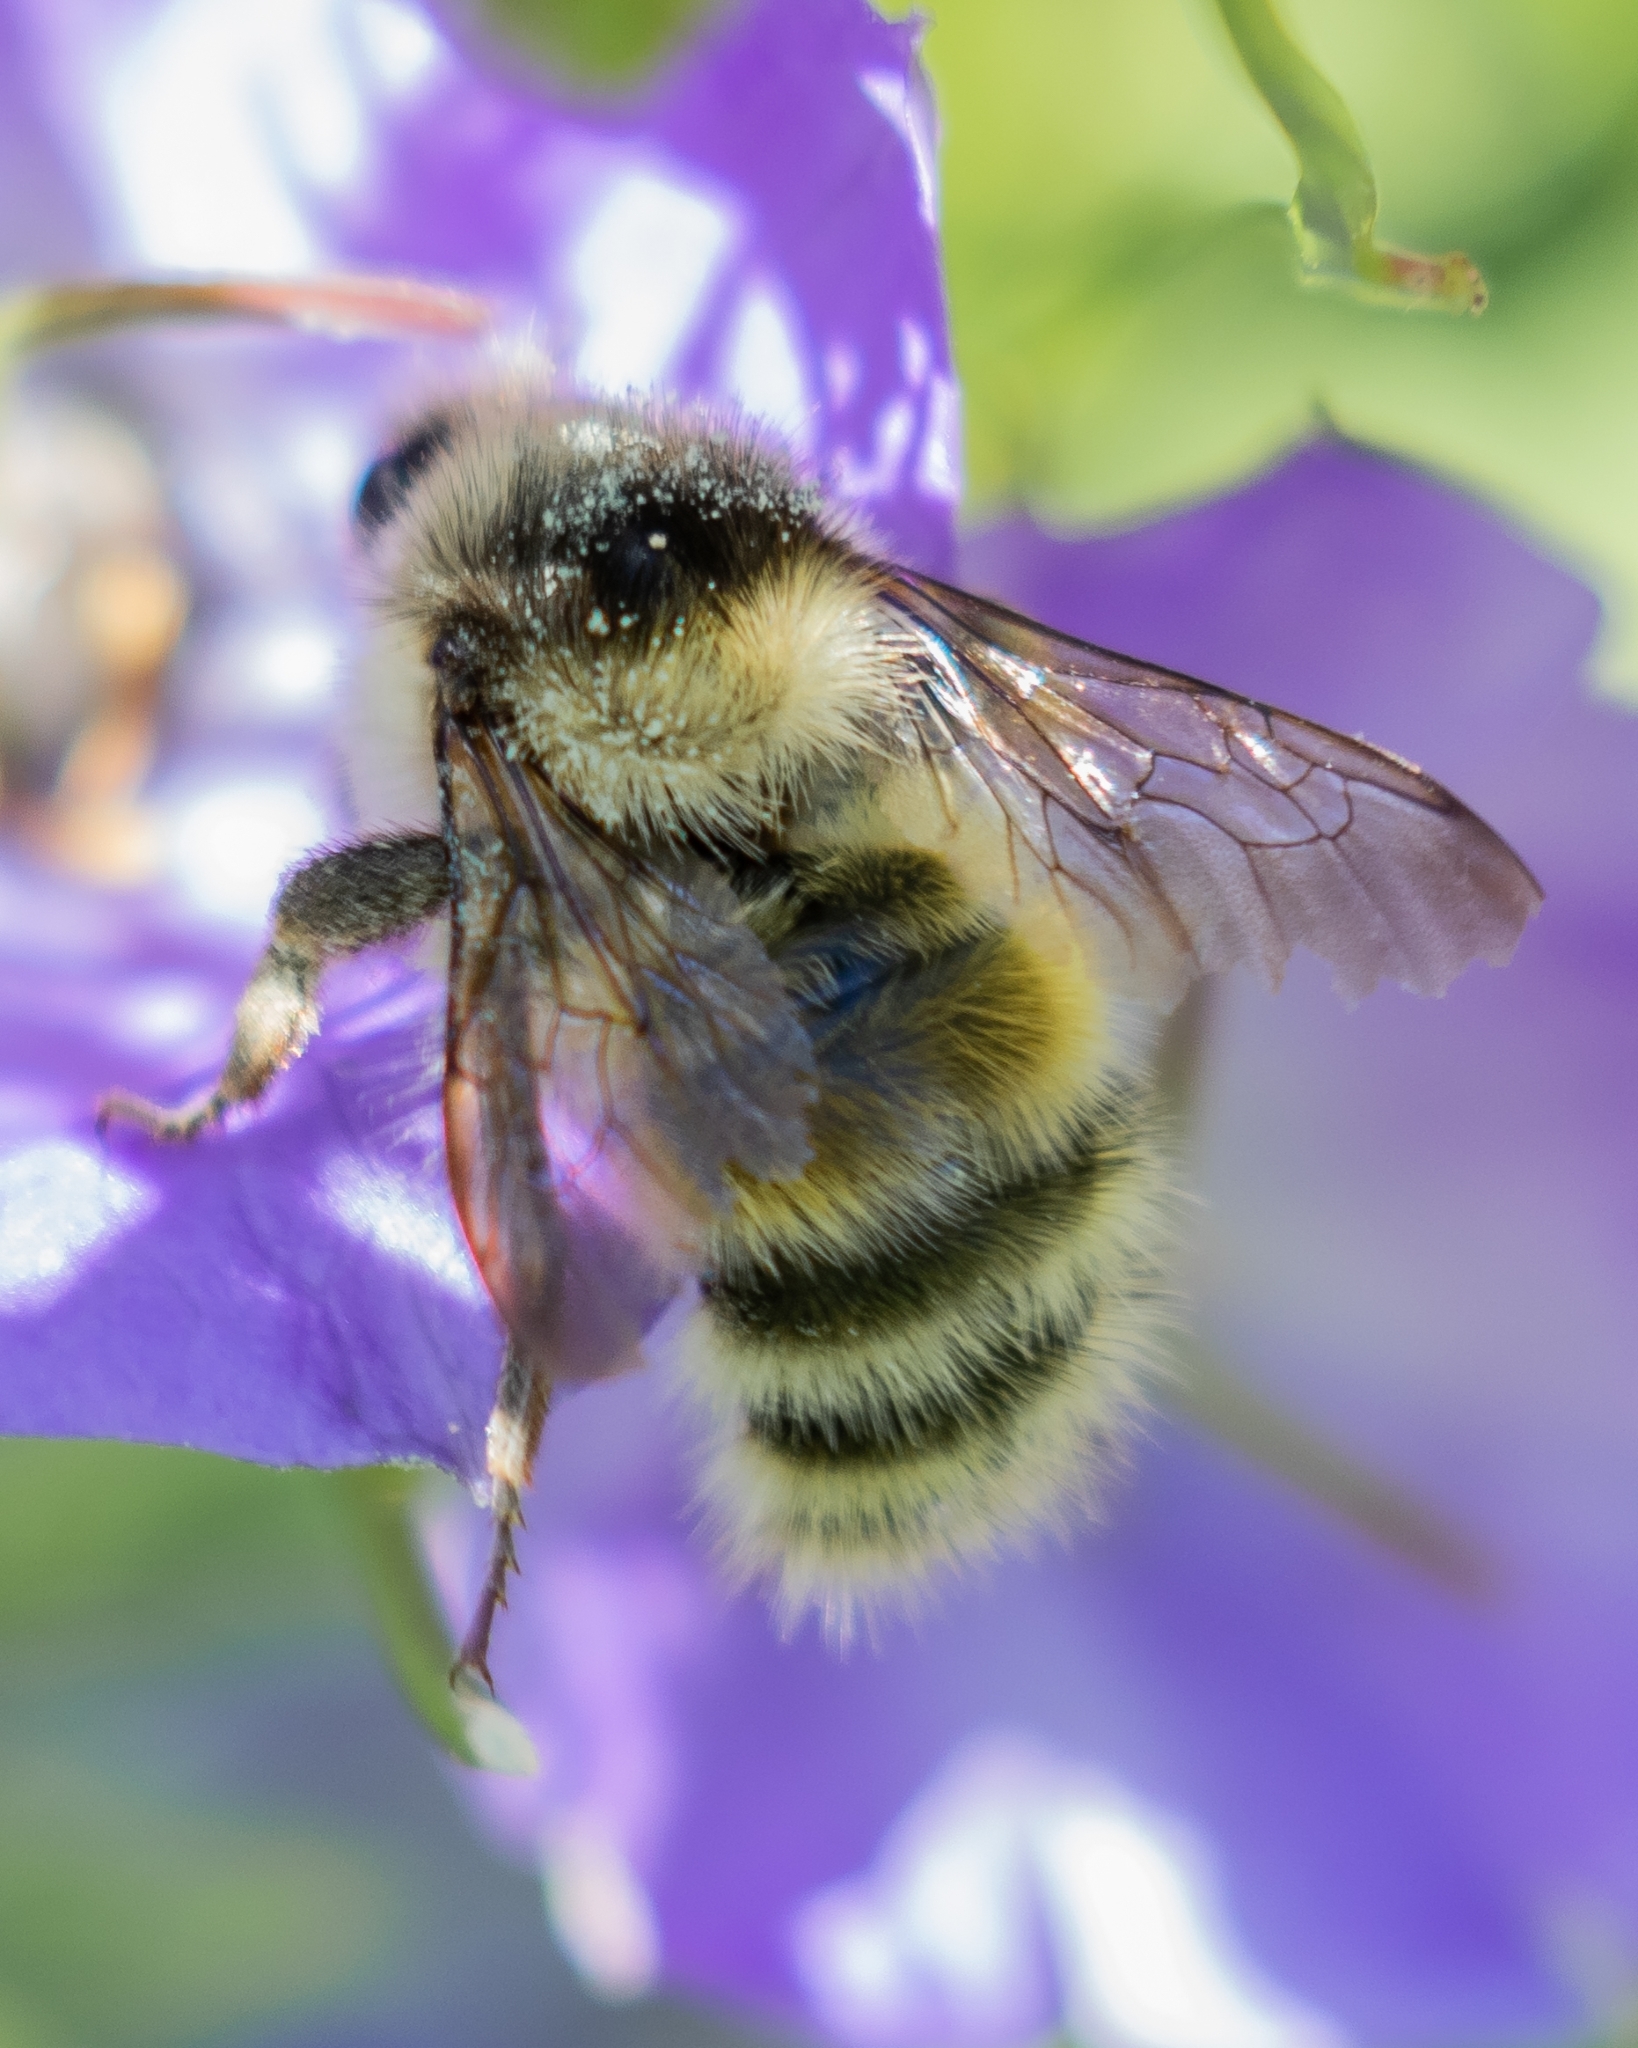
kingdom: Animalia
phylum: Arthropoda
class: Insecta
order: Hymenoptera
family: Apidae
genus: Bombus
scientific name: Bombus veteranus
